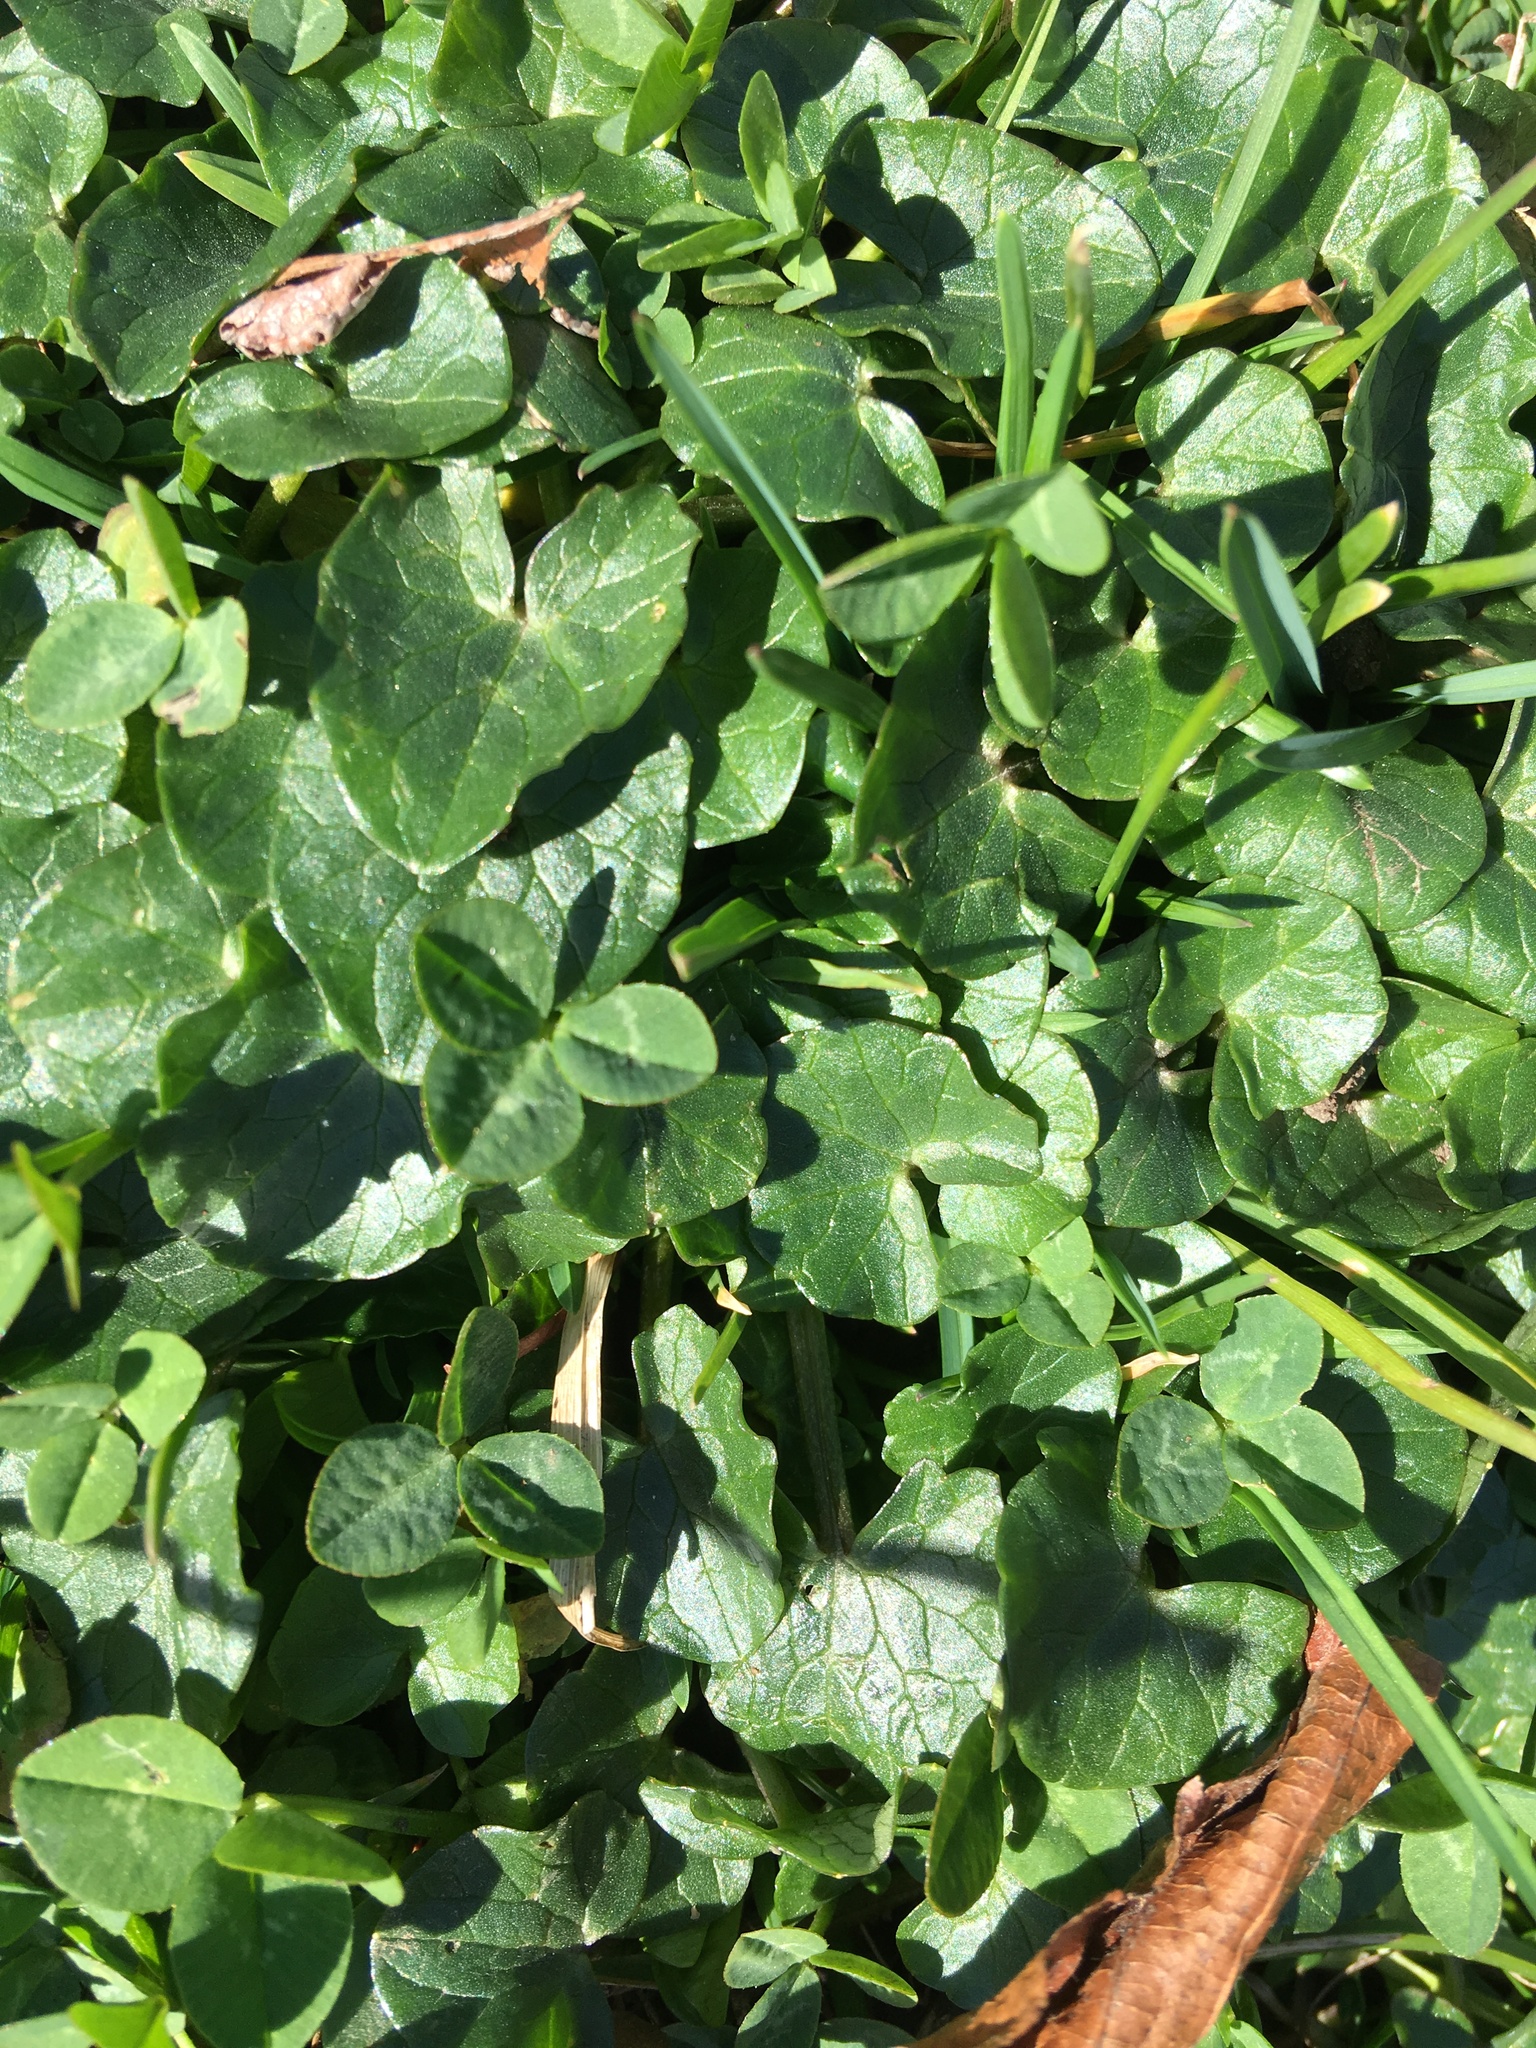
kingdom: Plantae
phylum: Tracheophyta
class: Magnoliopsida
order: Ranunculales
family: Ranunculaceae
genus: Ficaria
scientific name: Ficaria verna
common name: Lesser celandine
